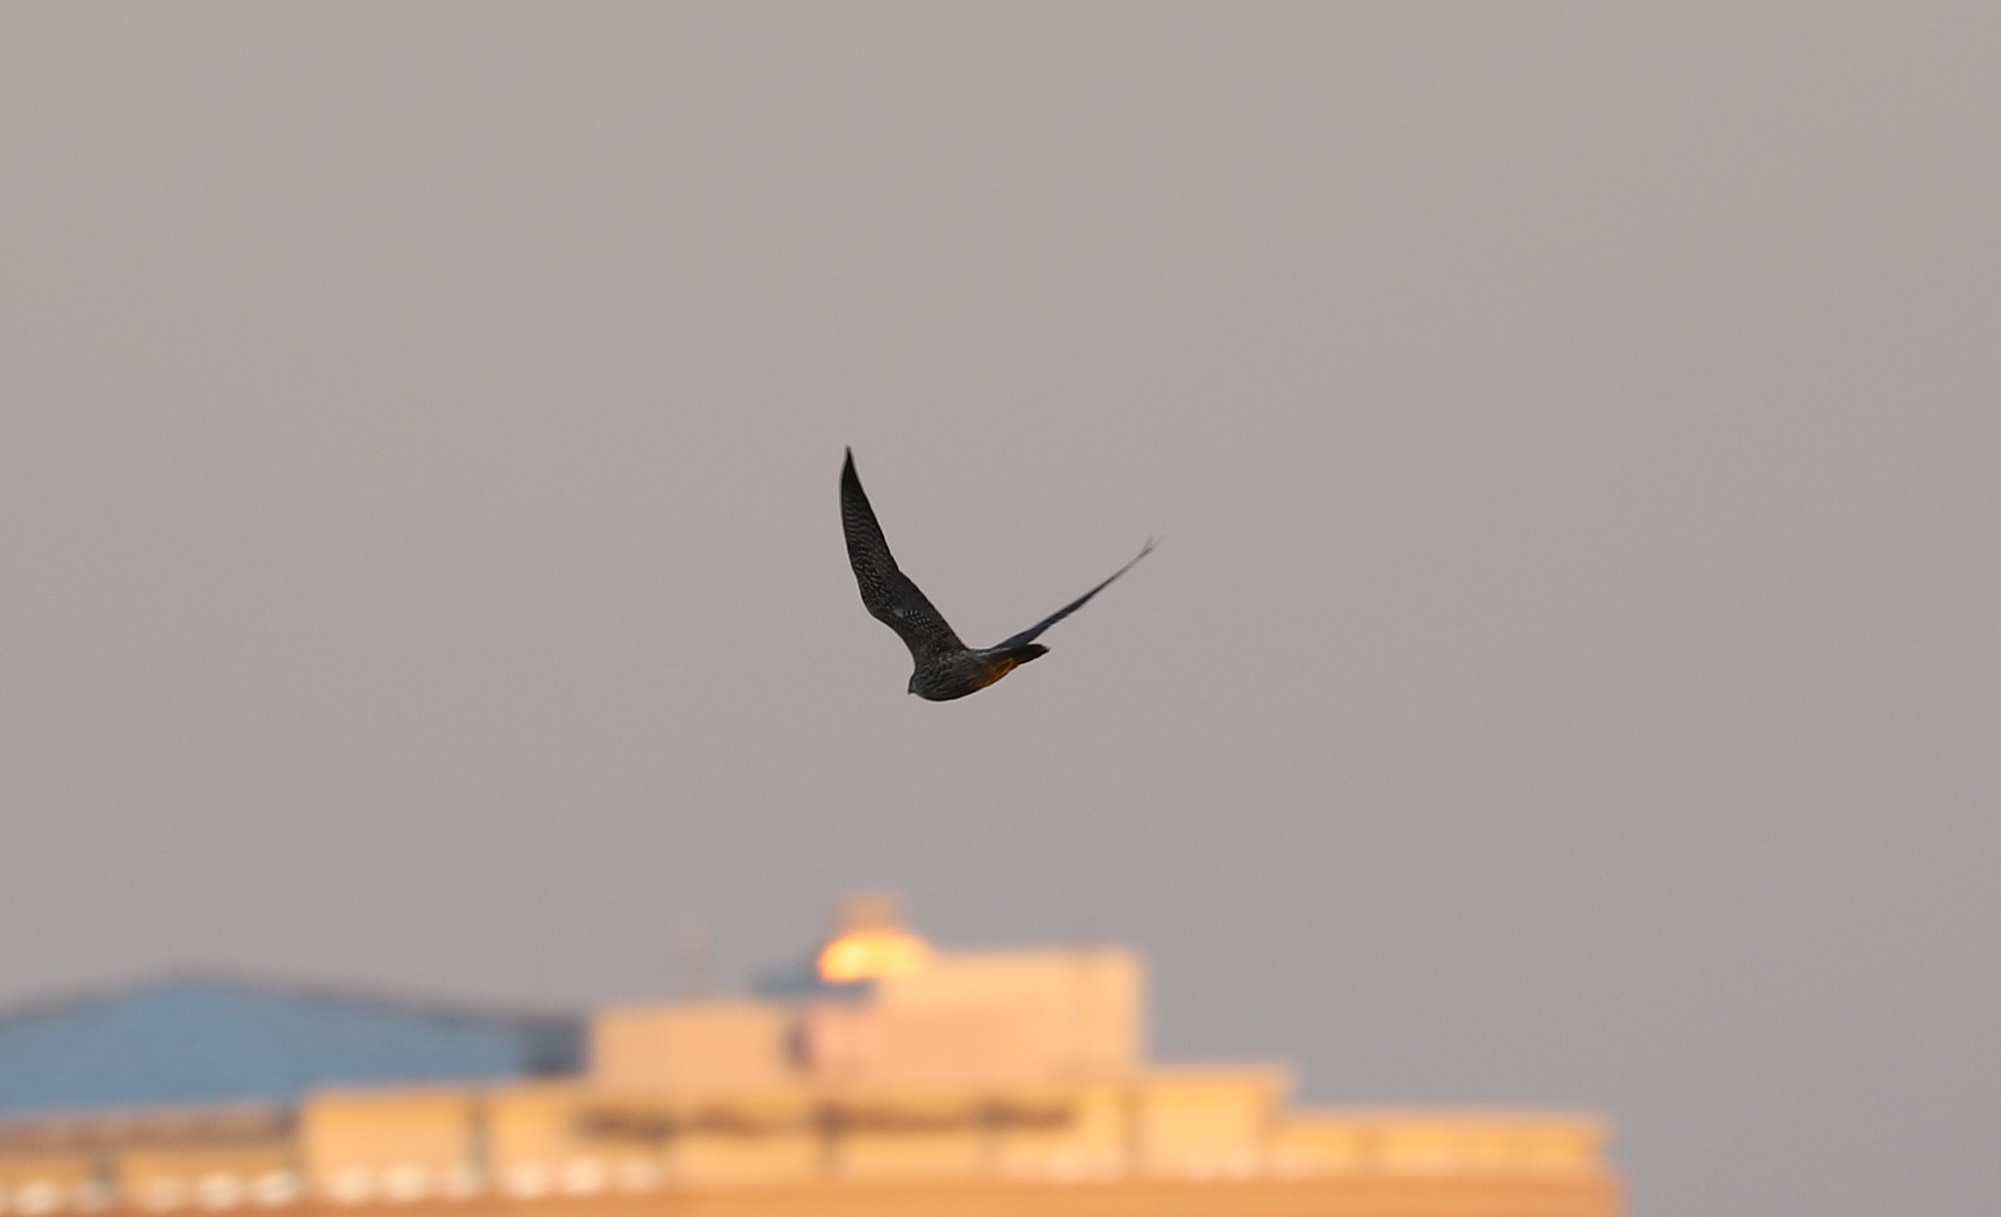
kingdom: Animalia
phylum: Chordata
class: Aves
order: Falconiformes
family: Falconidae
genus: Falco
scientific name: Falco subbuteo
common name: Eurasian hobby
